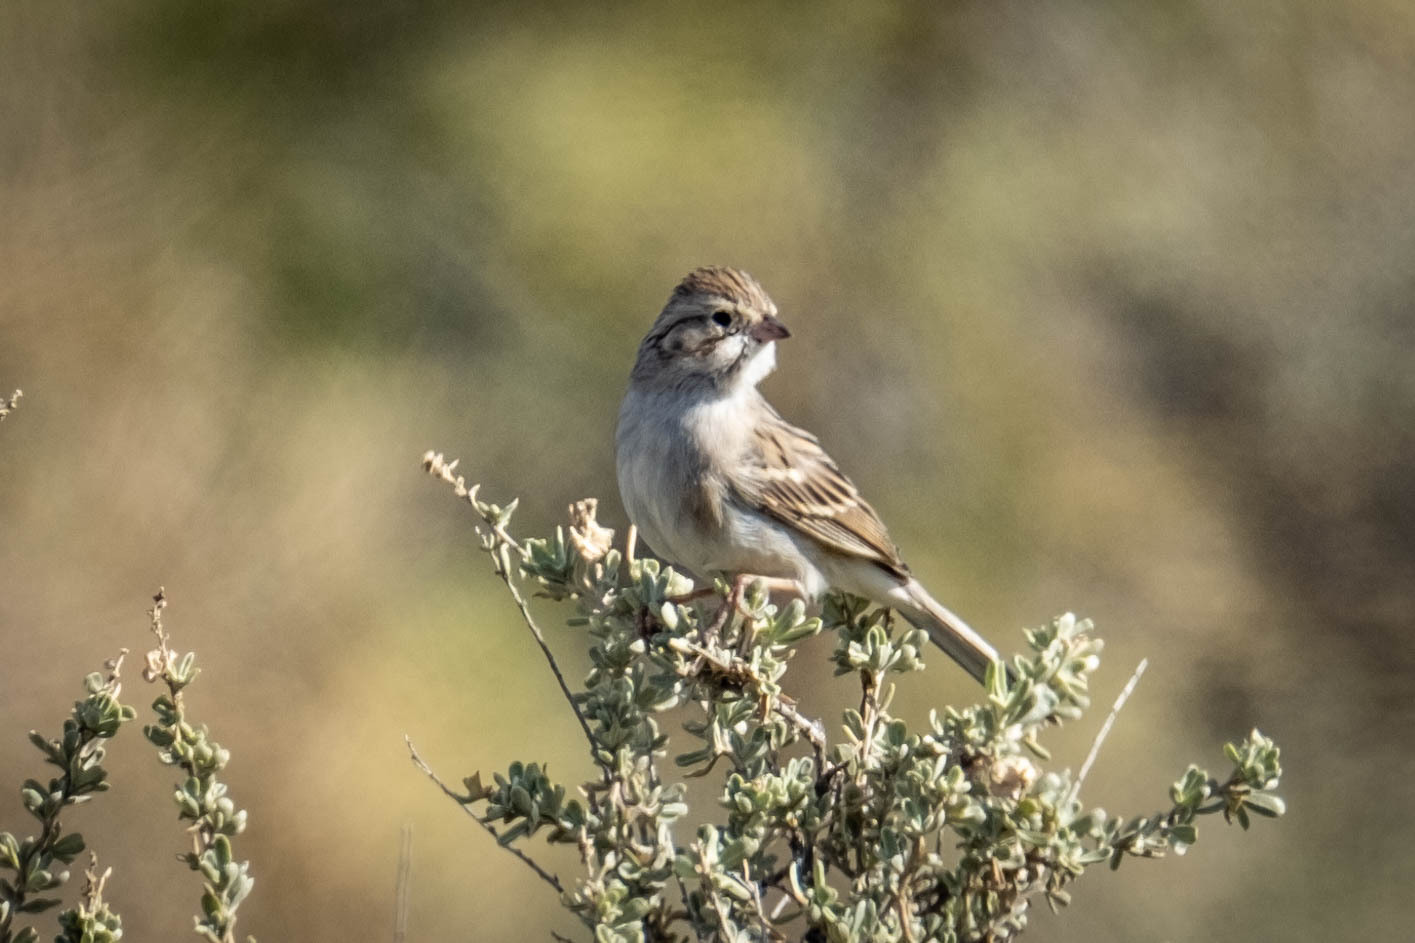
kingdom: Animalia
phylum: Chordata
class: Aves
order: Passeriformes
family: Passerellidae
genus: Spizella
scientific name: Spizella breweri
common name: Brewer's sparrow
